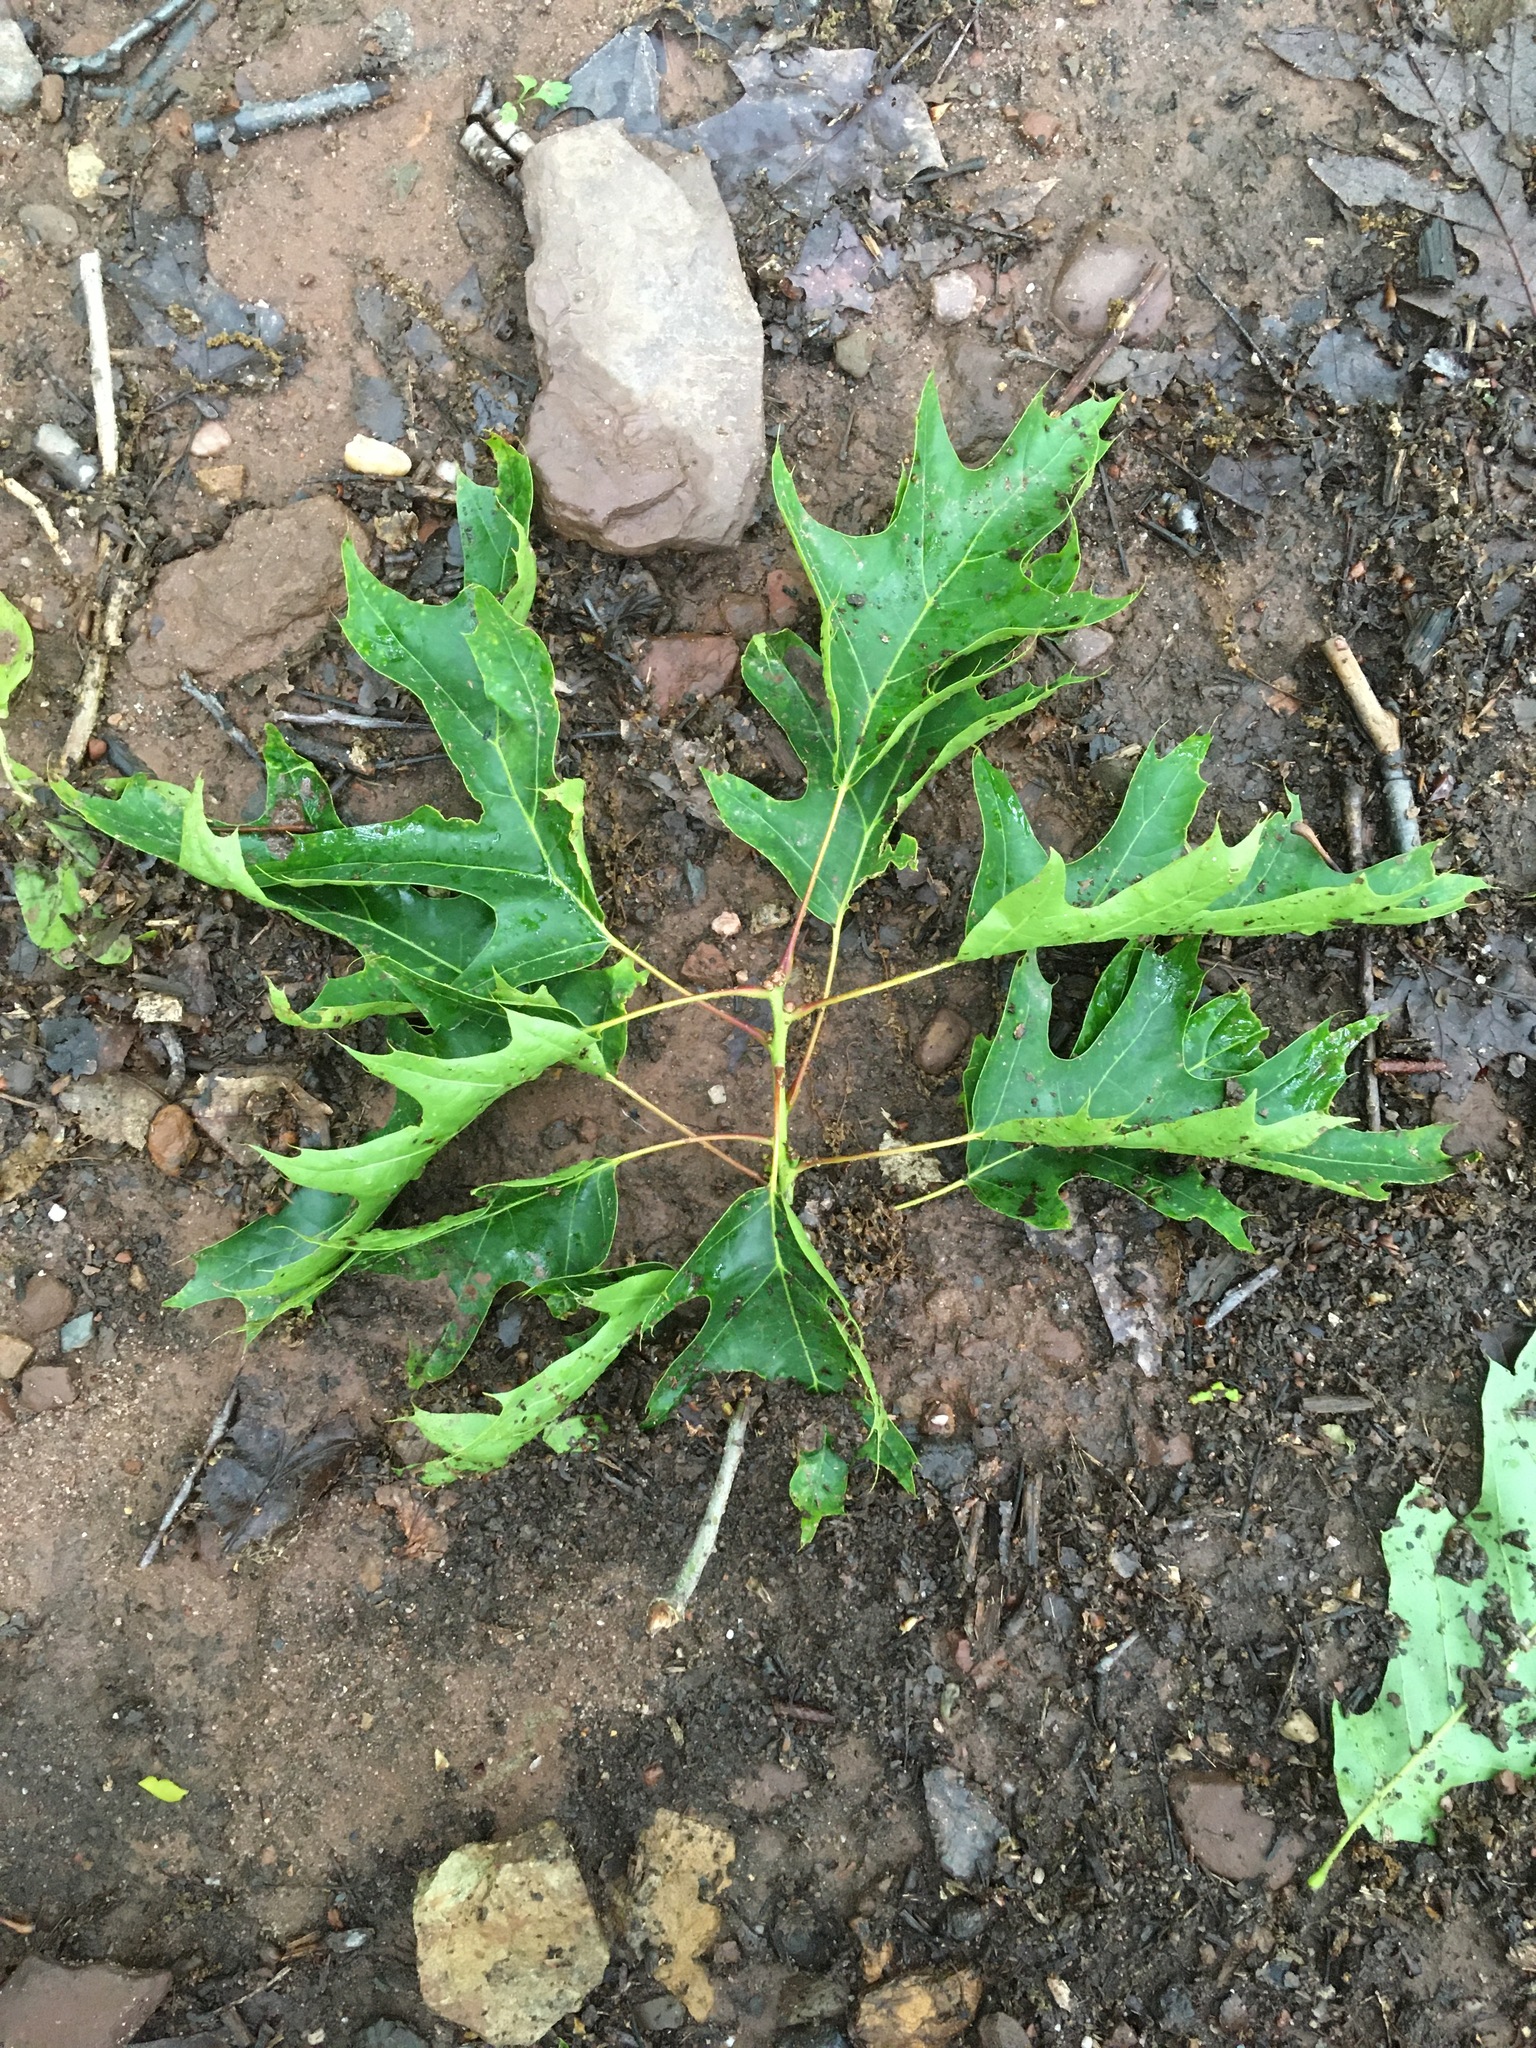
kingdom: Plantae
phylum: Tracheophyta
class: Magnoliopsida
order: Fagales
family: Fagaceae
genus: Quercus
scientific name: Quercus rubra
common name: Red oak
